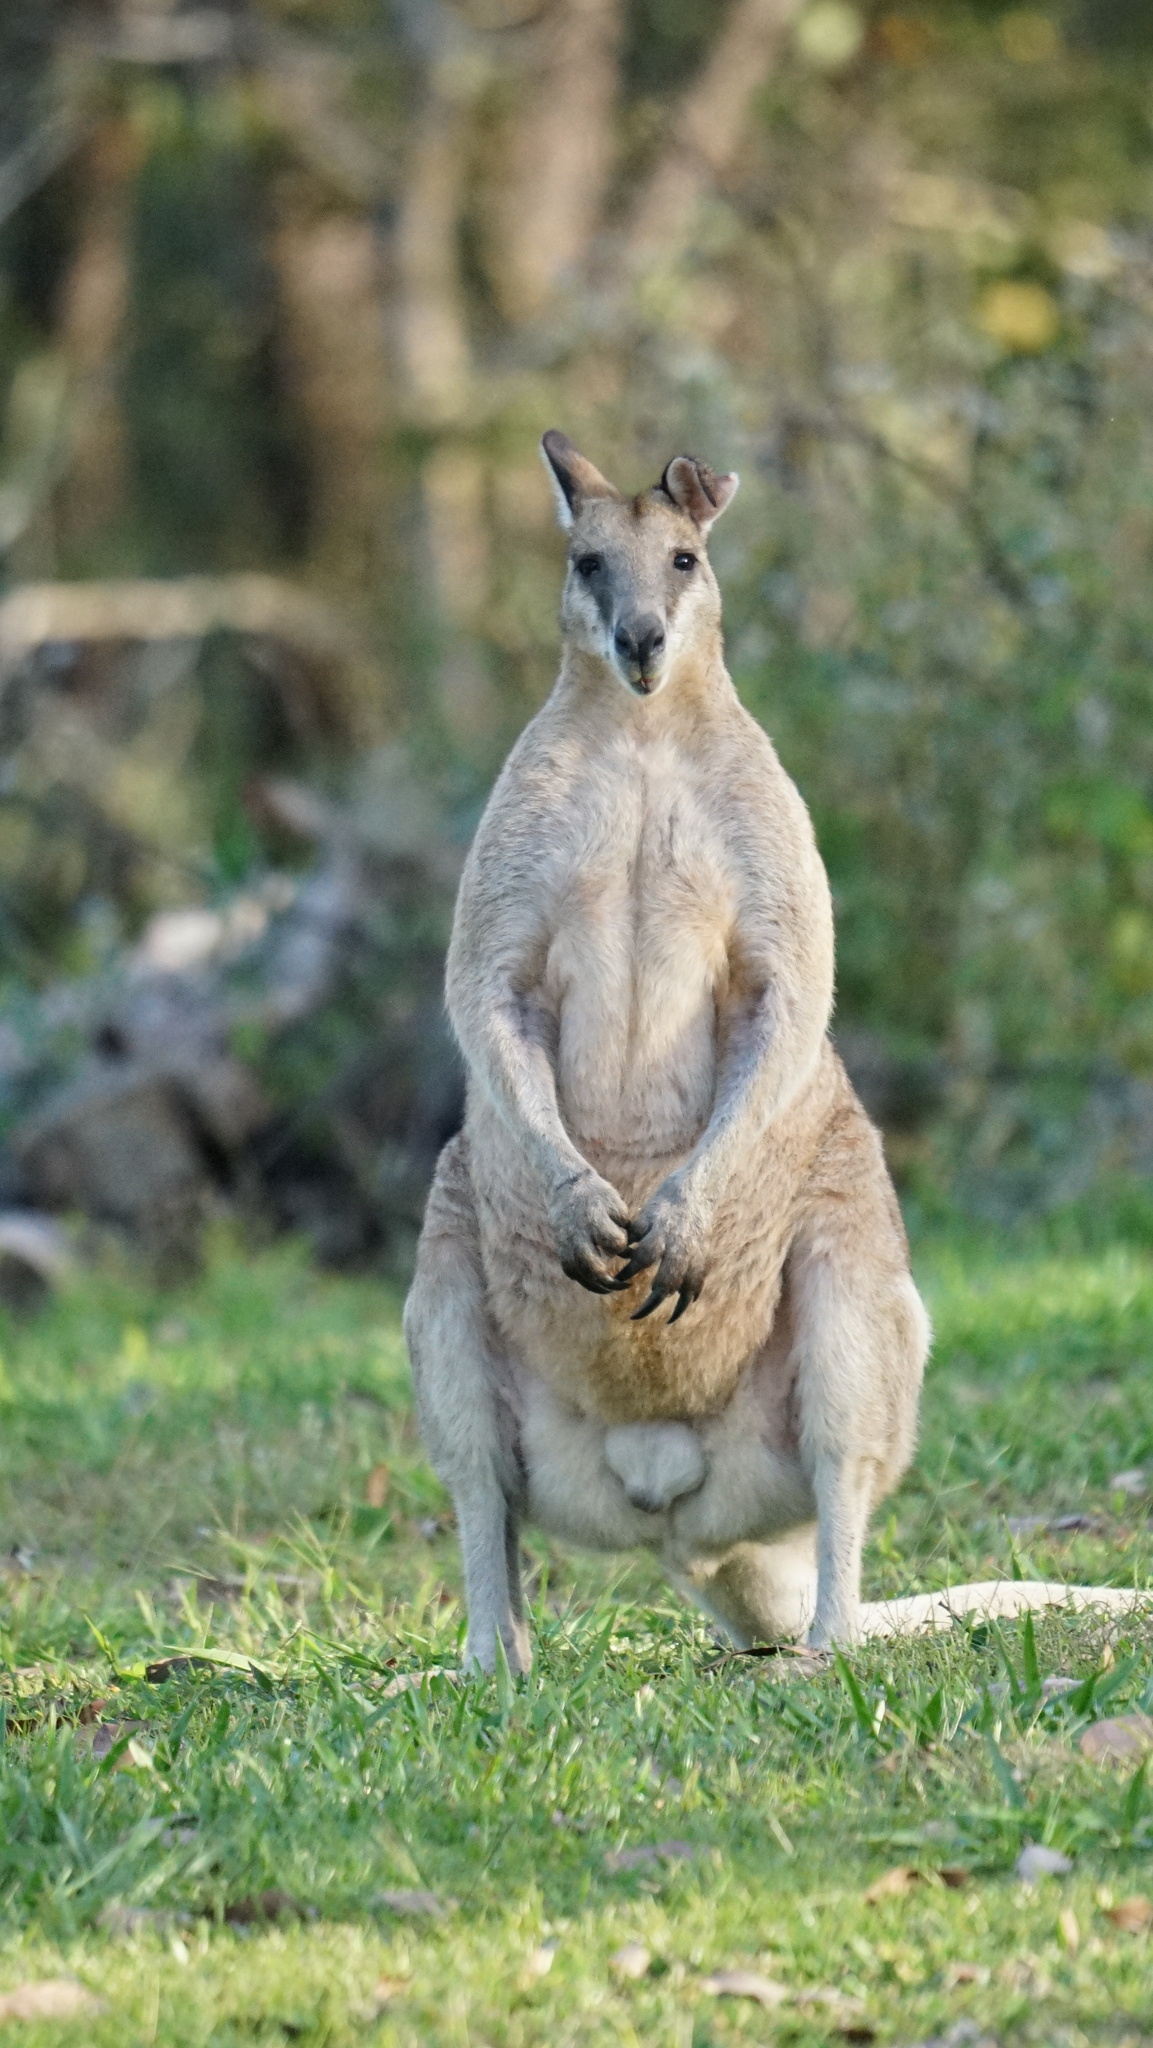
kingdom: Animalia
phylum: Chordata
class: Mammalia
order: Diprotodontia
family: Macropodidae
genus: Macropus
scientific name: Macropus agilis
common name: Agile wallaby
